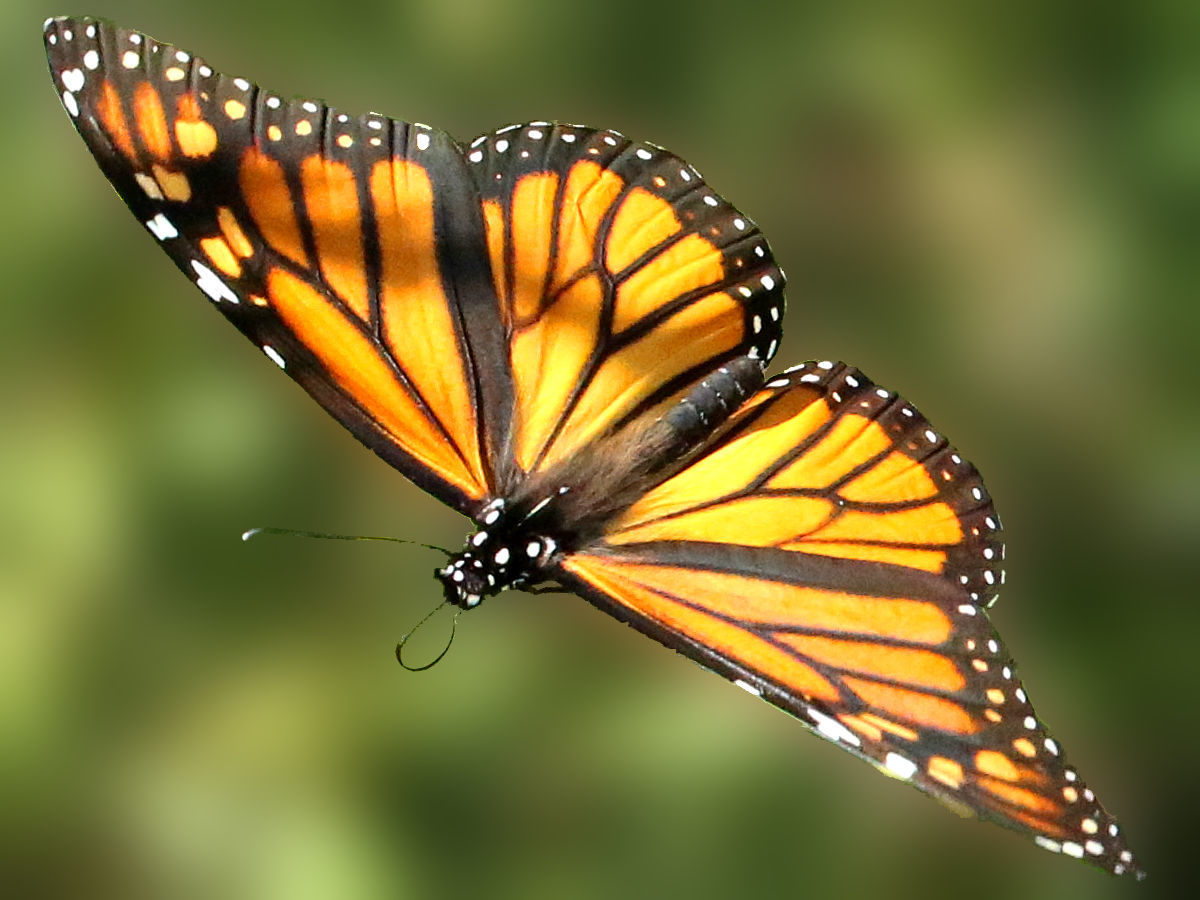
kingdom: Animalia
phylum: Arthropoda
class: Insecta
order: Lepidoptera
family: Nymphalidae
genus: Danaus
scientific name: Danaus plexippus
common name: Monarch
